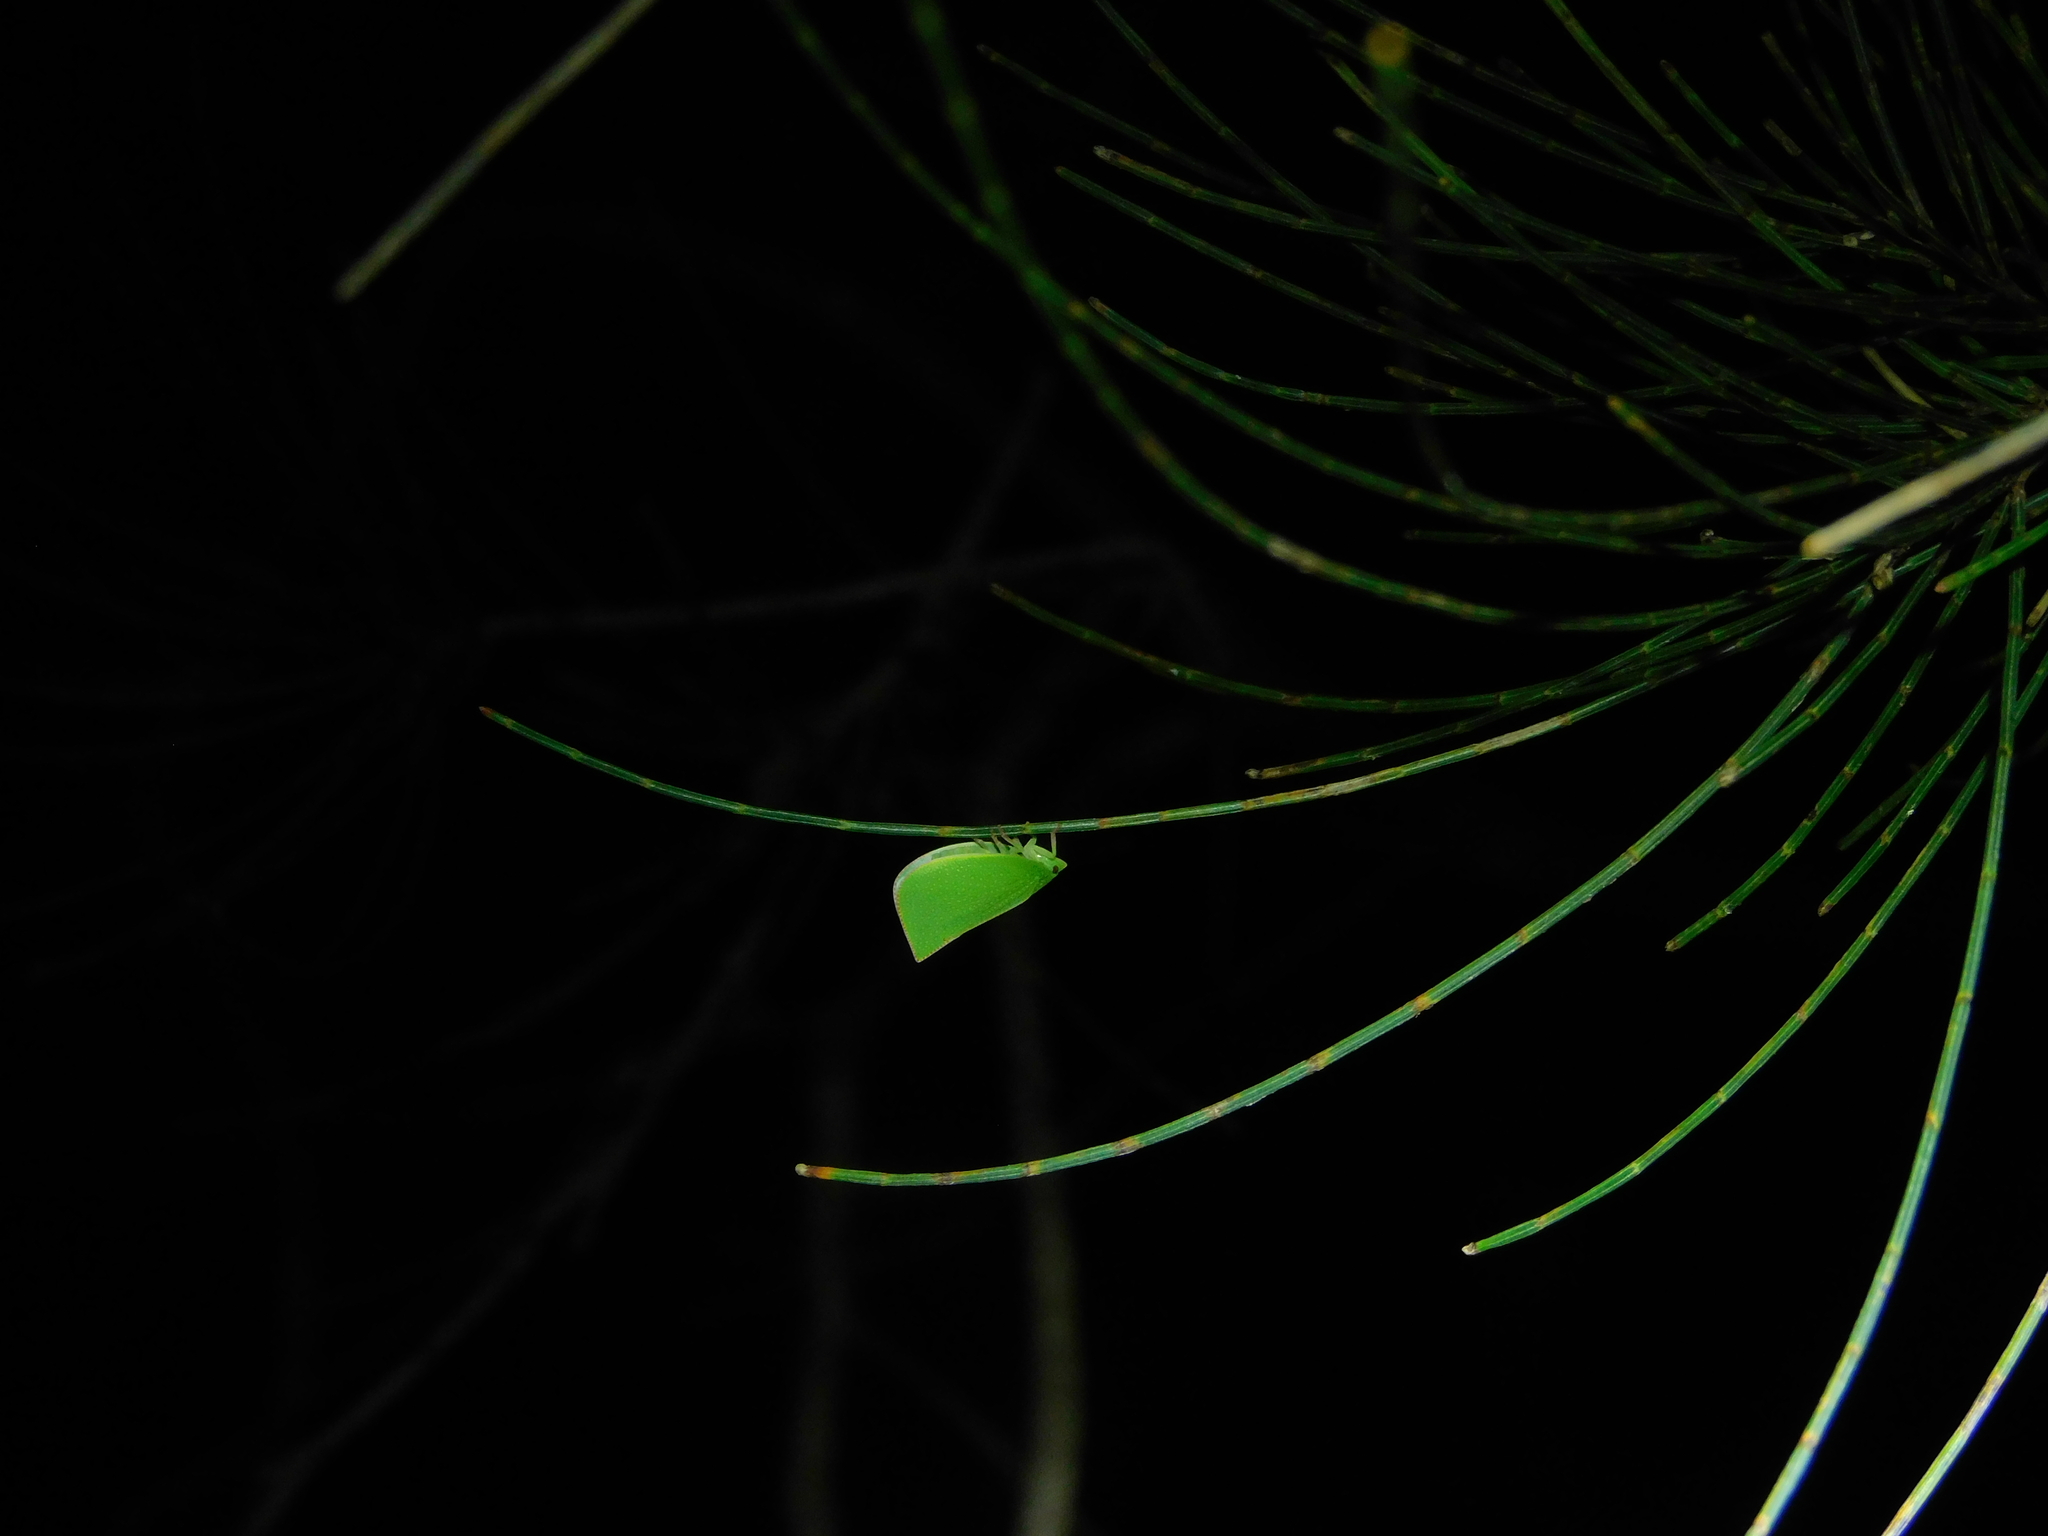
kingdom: Animalia
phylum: Arthropoda
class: Insecta
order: Hemiptera
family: Flatidae
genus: Siphanta
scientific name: Siphanta
